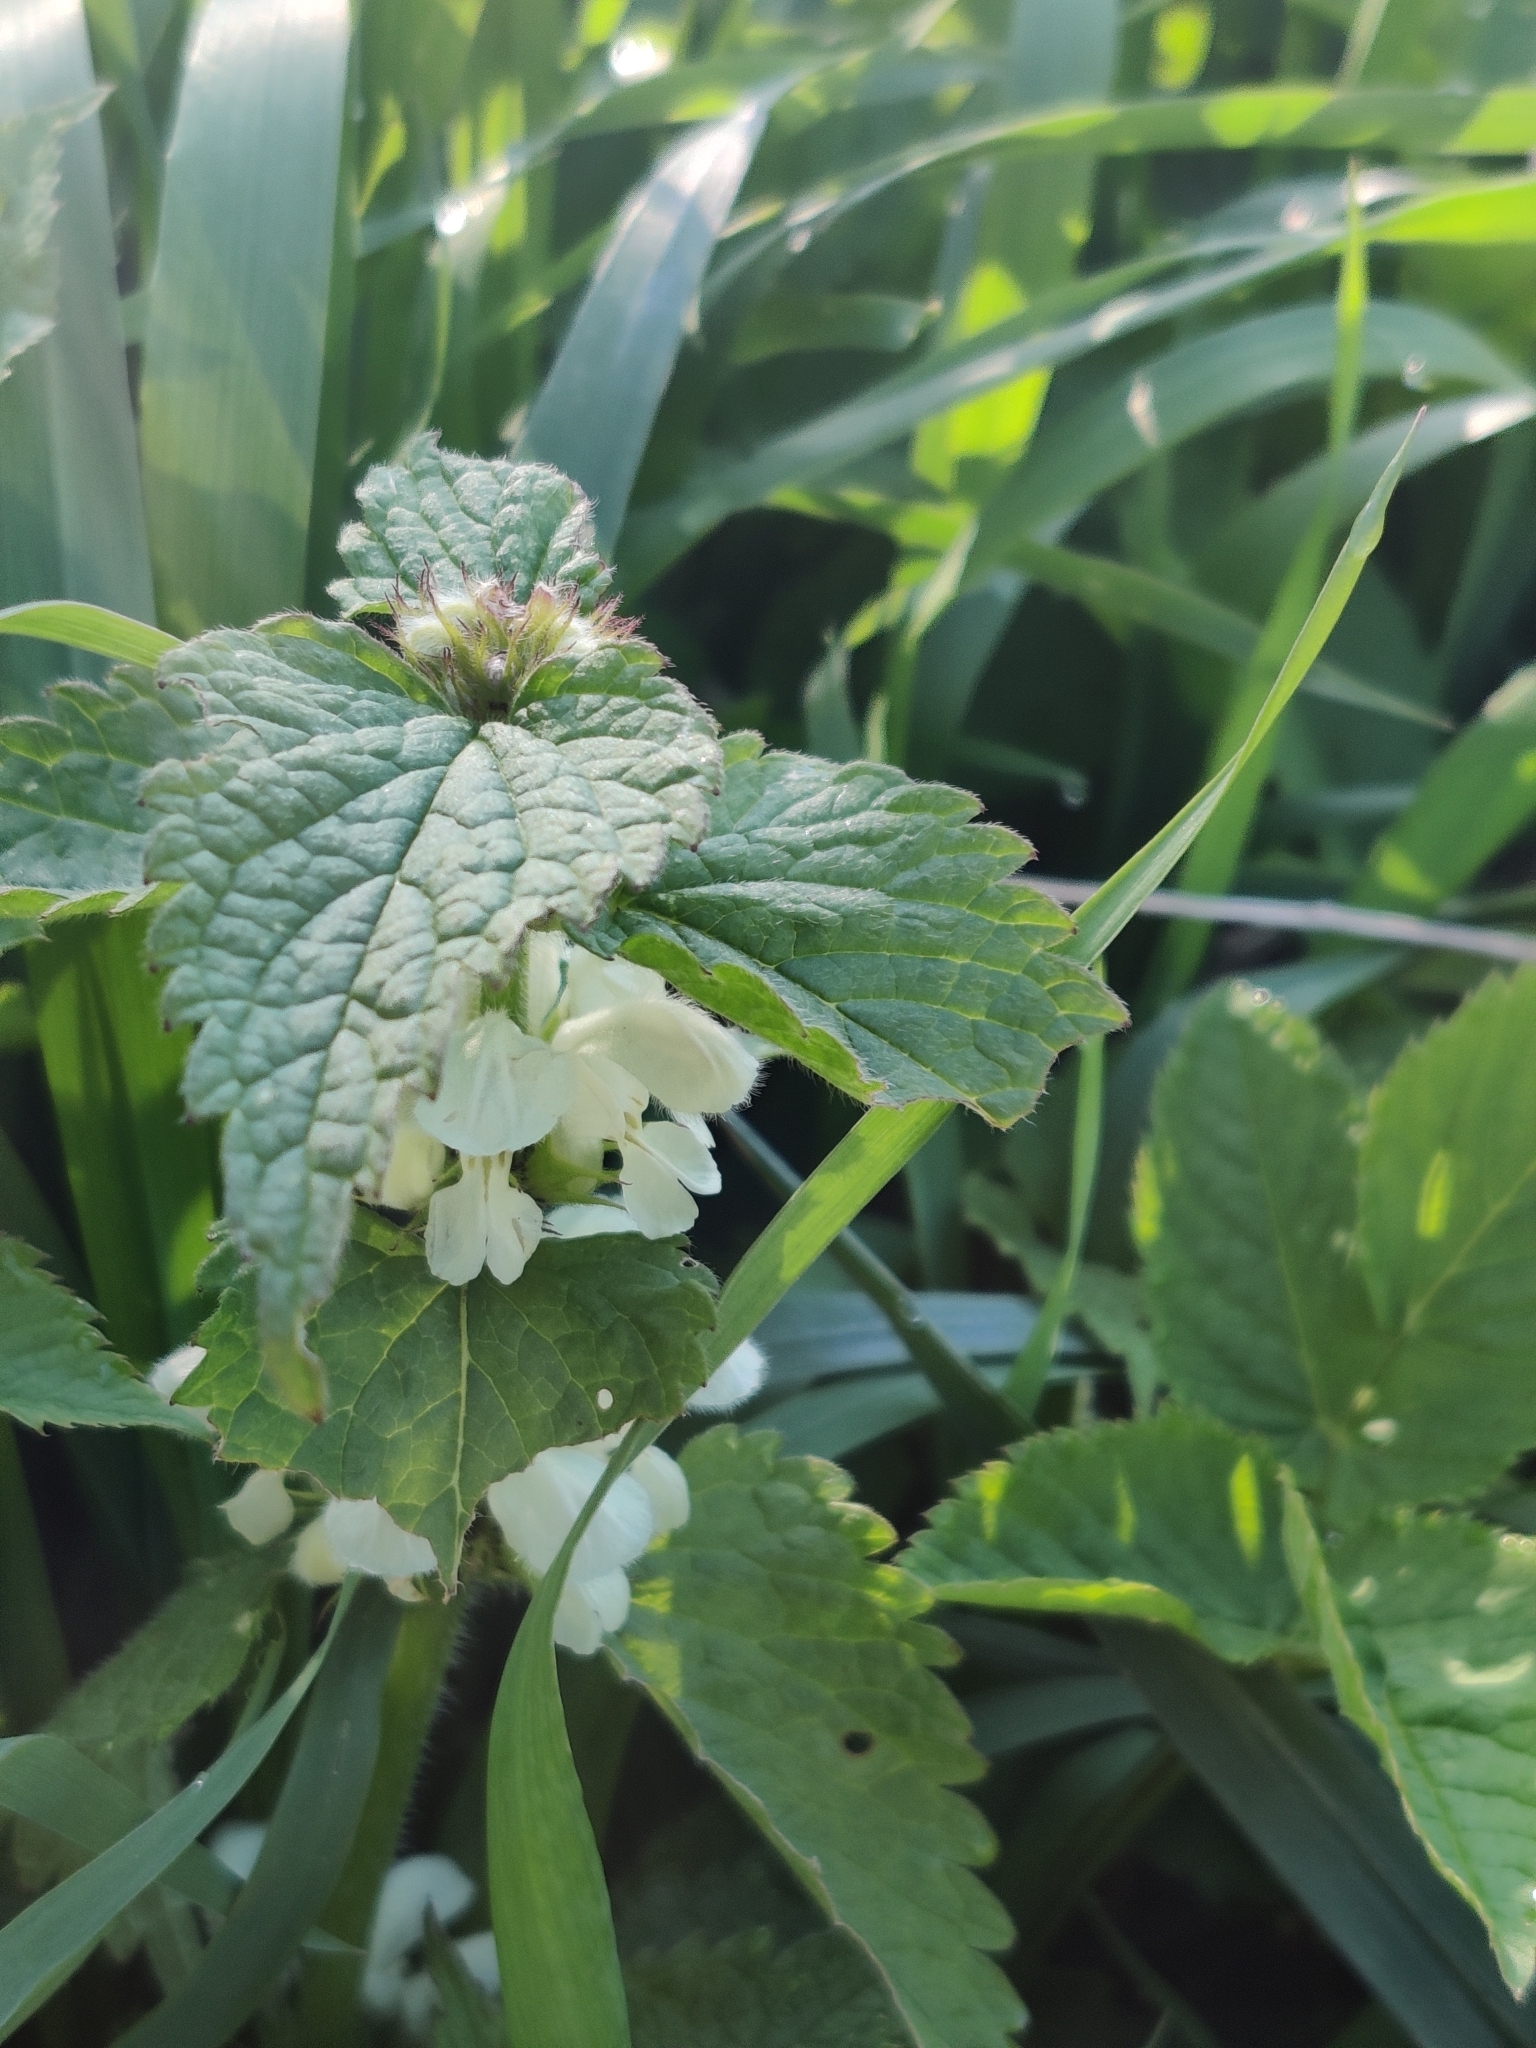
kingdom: Plantae
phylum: Tracheophyta
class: Magnoliopsida
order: Lamiales
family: Lamiaceae
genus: Lamium
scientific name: Lamium album
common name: White dead-nettle
